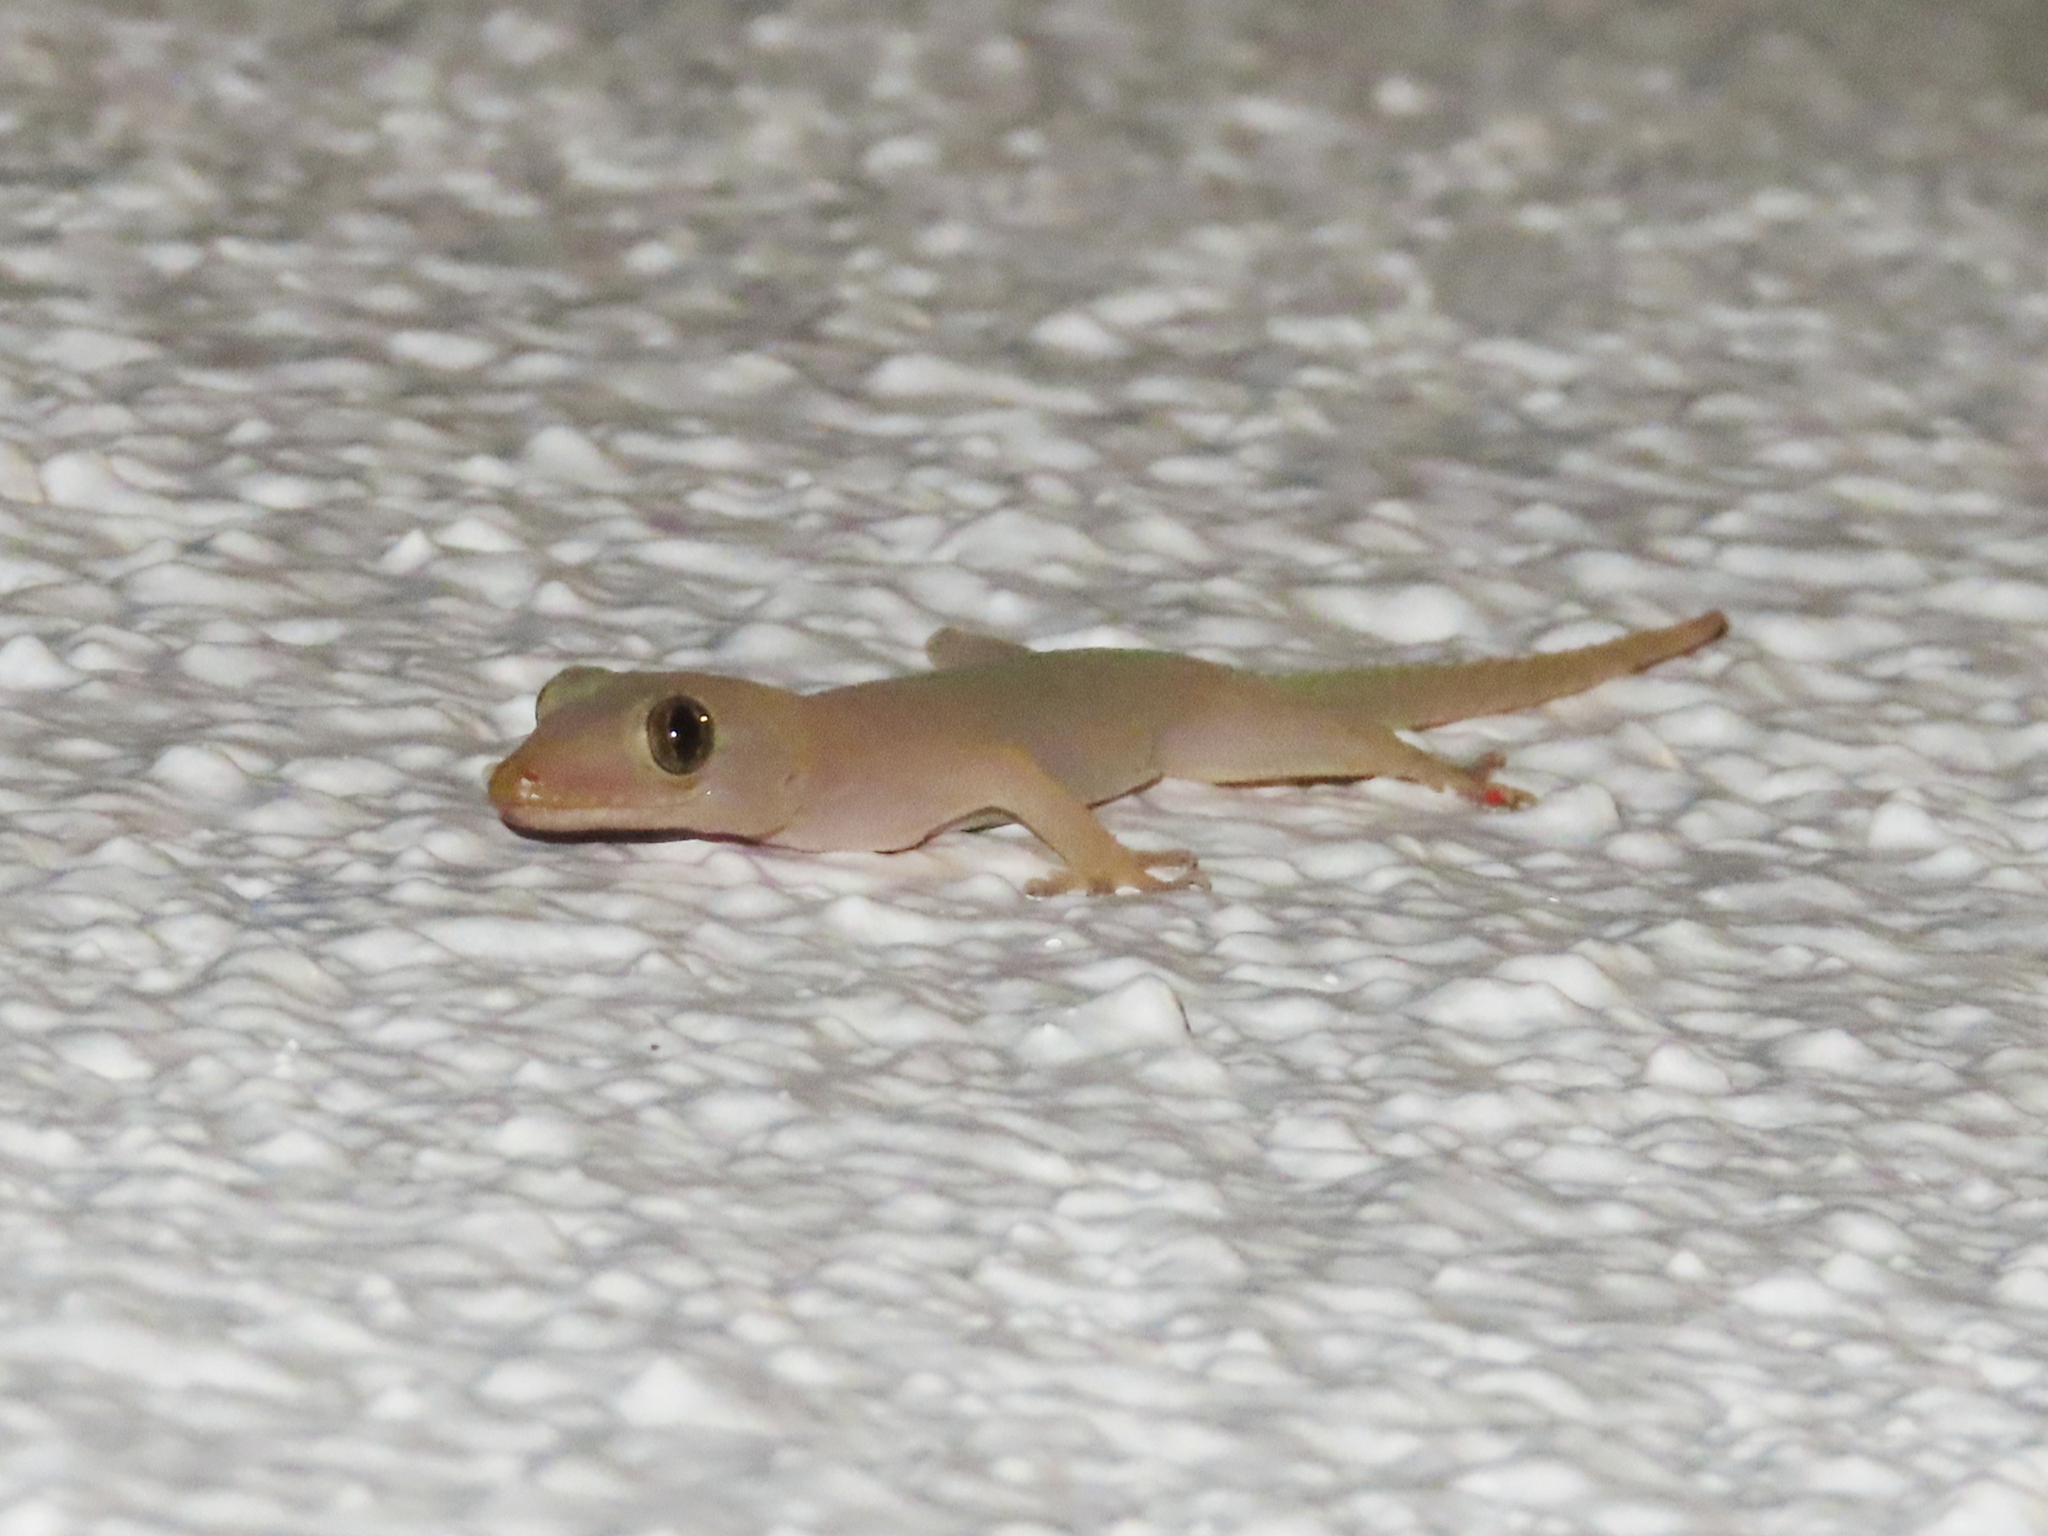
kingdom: Animalia
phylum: Chordata
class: Squamata
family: Gekkonidae
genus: Hemidactylus
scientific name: Hemidactylus frenatus
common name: Common house gecko
